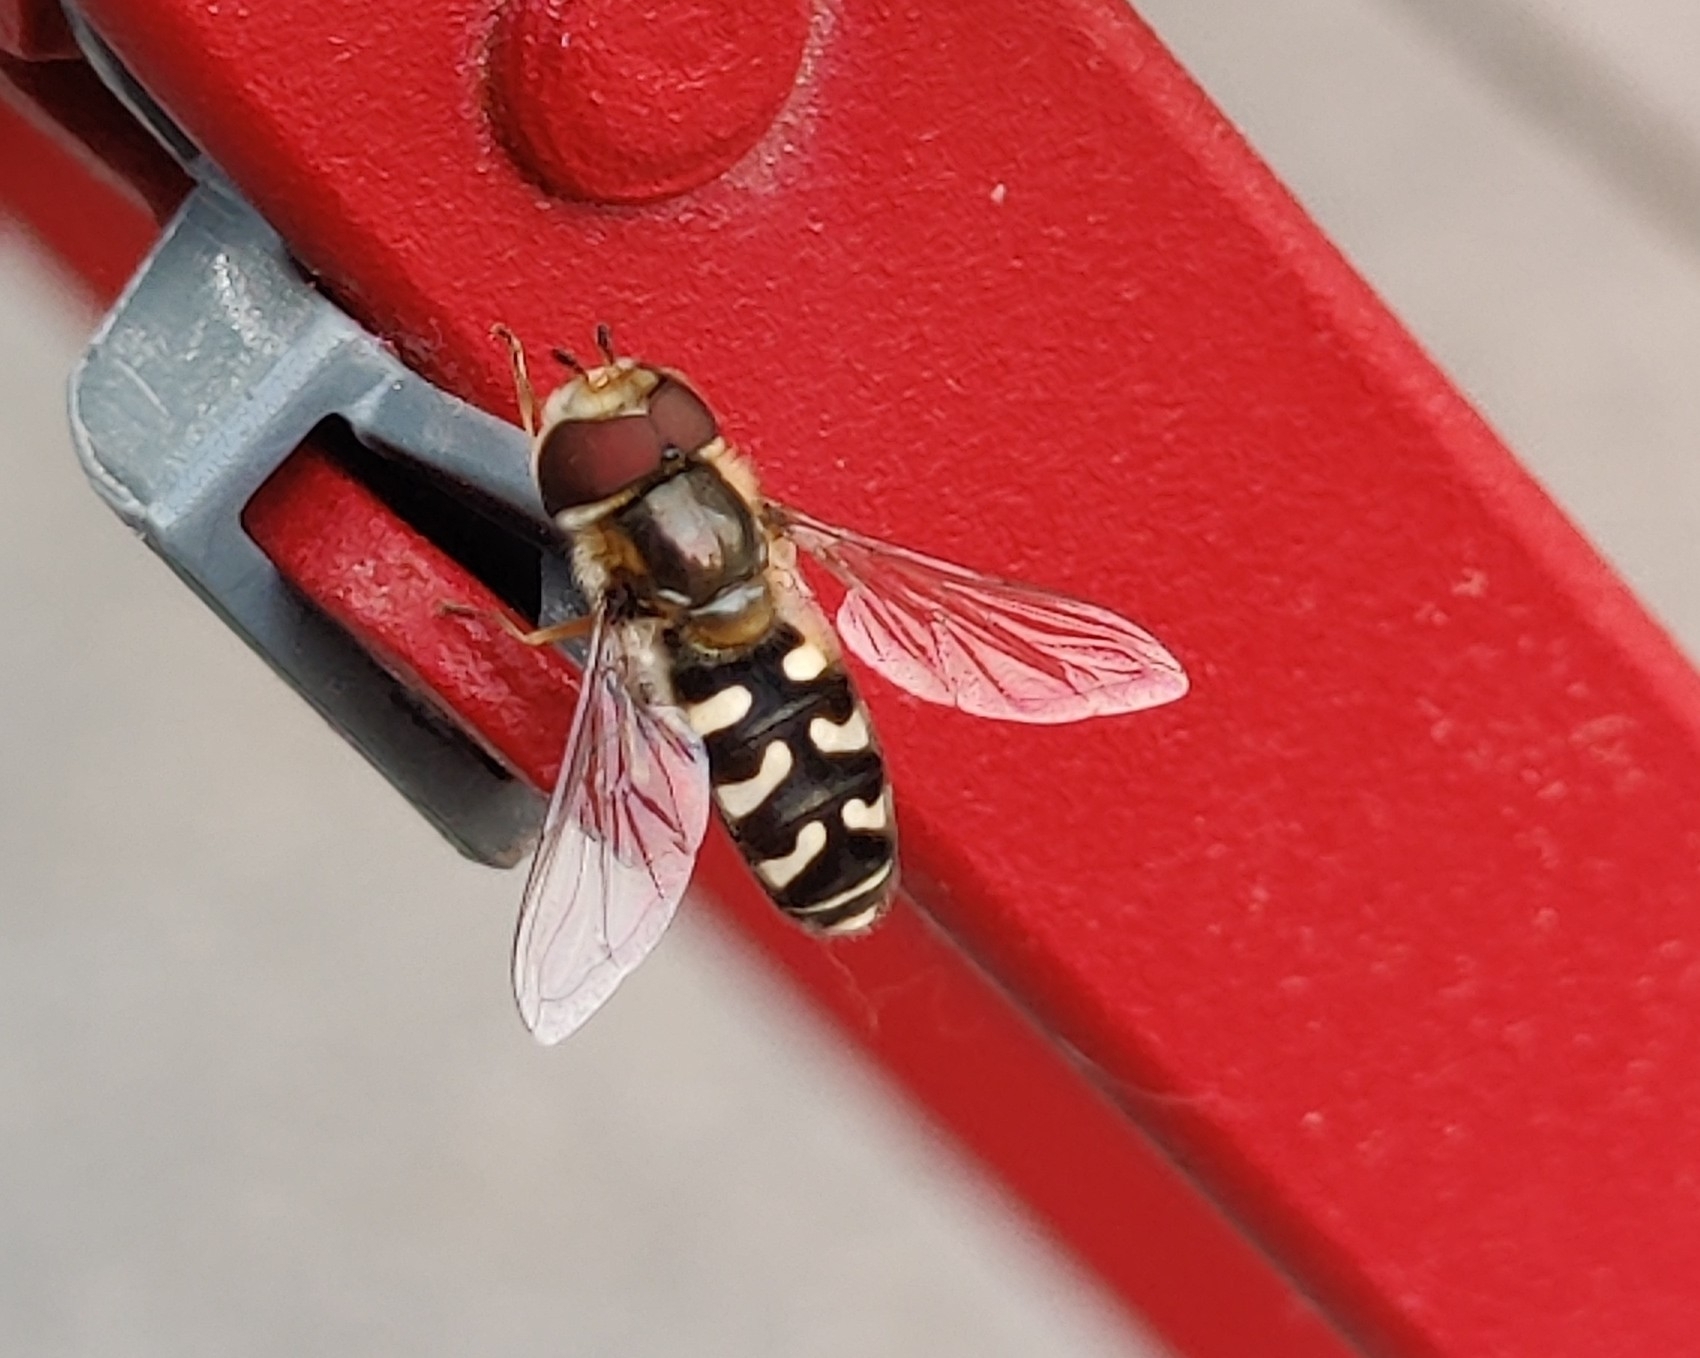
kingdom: Animalia
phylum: Arthropoda
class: Insecta
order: Diptera
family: Syrphidae
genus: Scaeva
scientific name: Scaeva pyrastri
